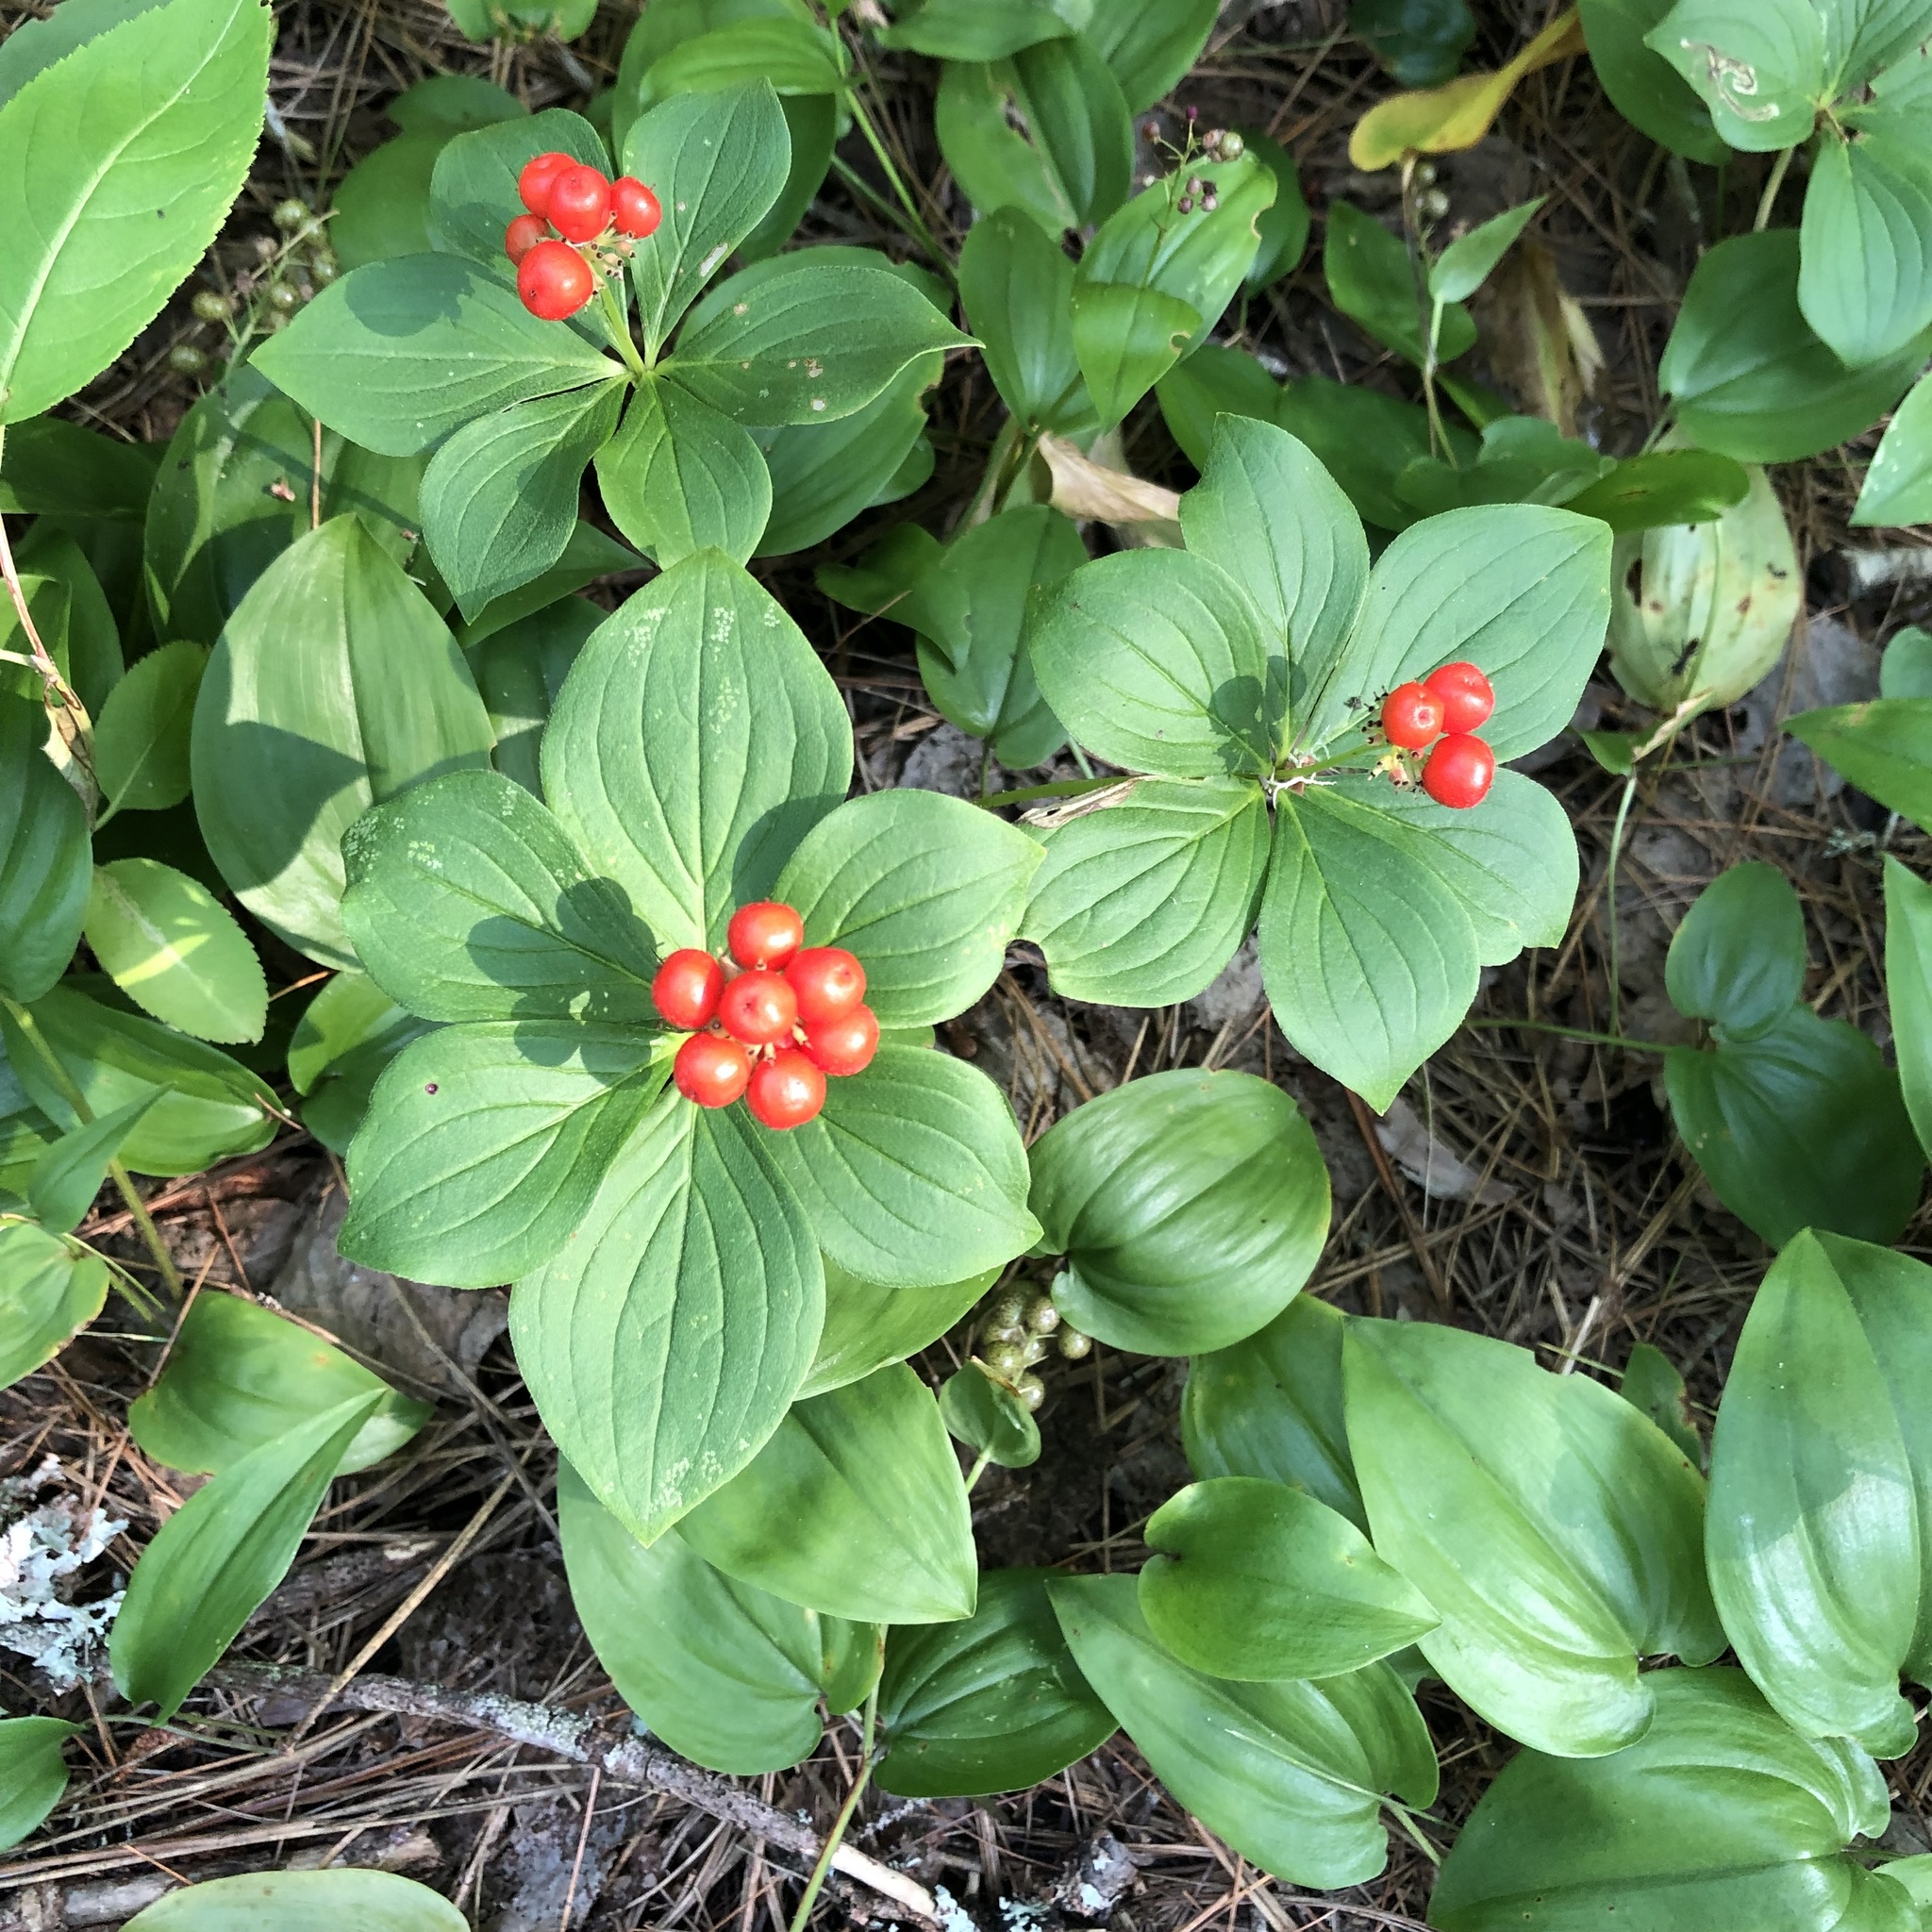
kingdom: Plantae
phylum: Tracheophyta
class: Magnoliopsida
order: Cornales
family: Cornaceae
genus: Cornus
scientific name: Cornus canadensis
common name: Creeping dogwood
